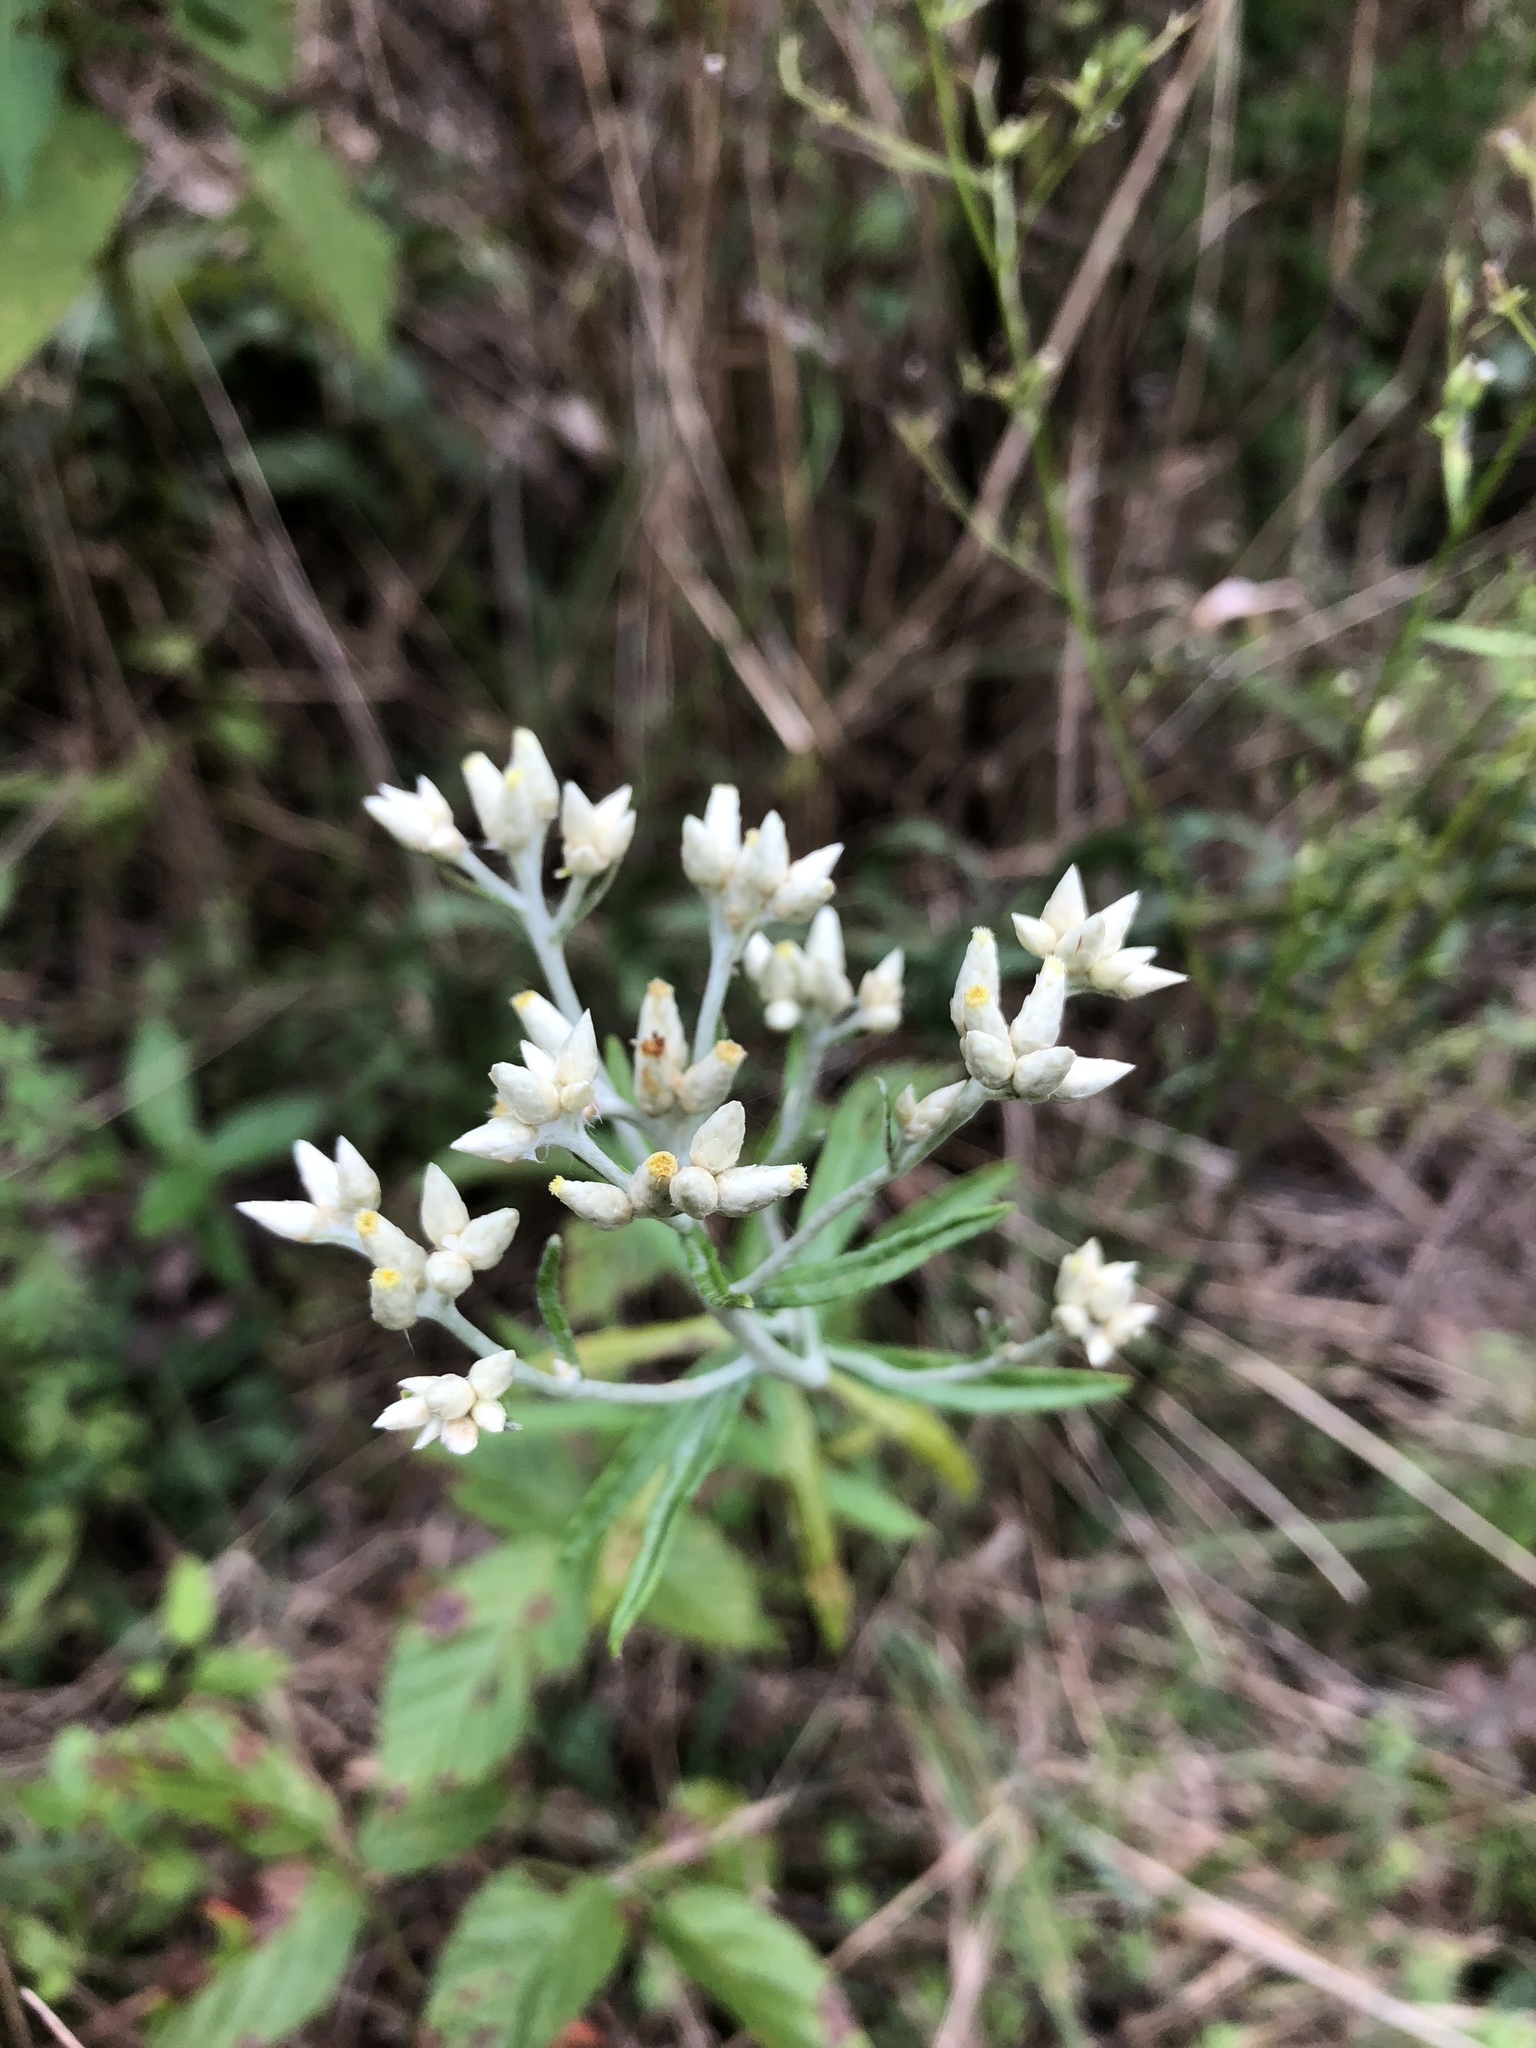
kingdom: Plantae
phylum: Tracheophyta
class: Magnoliopsida
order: Asterales
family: Asteraceae
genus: Pseudognaphalium
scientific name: Pseudognaphalium obtusifolium
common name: Eastern rabbit-tobacco
